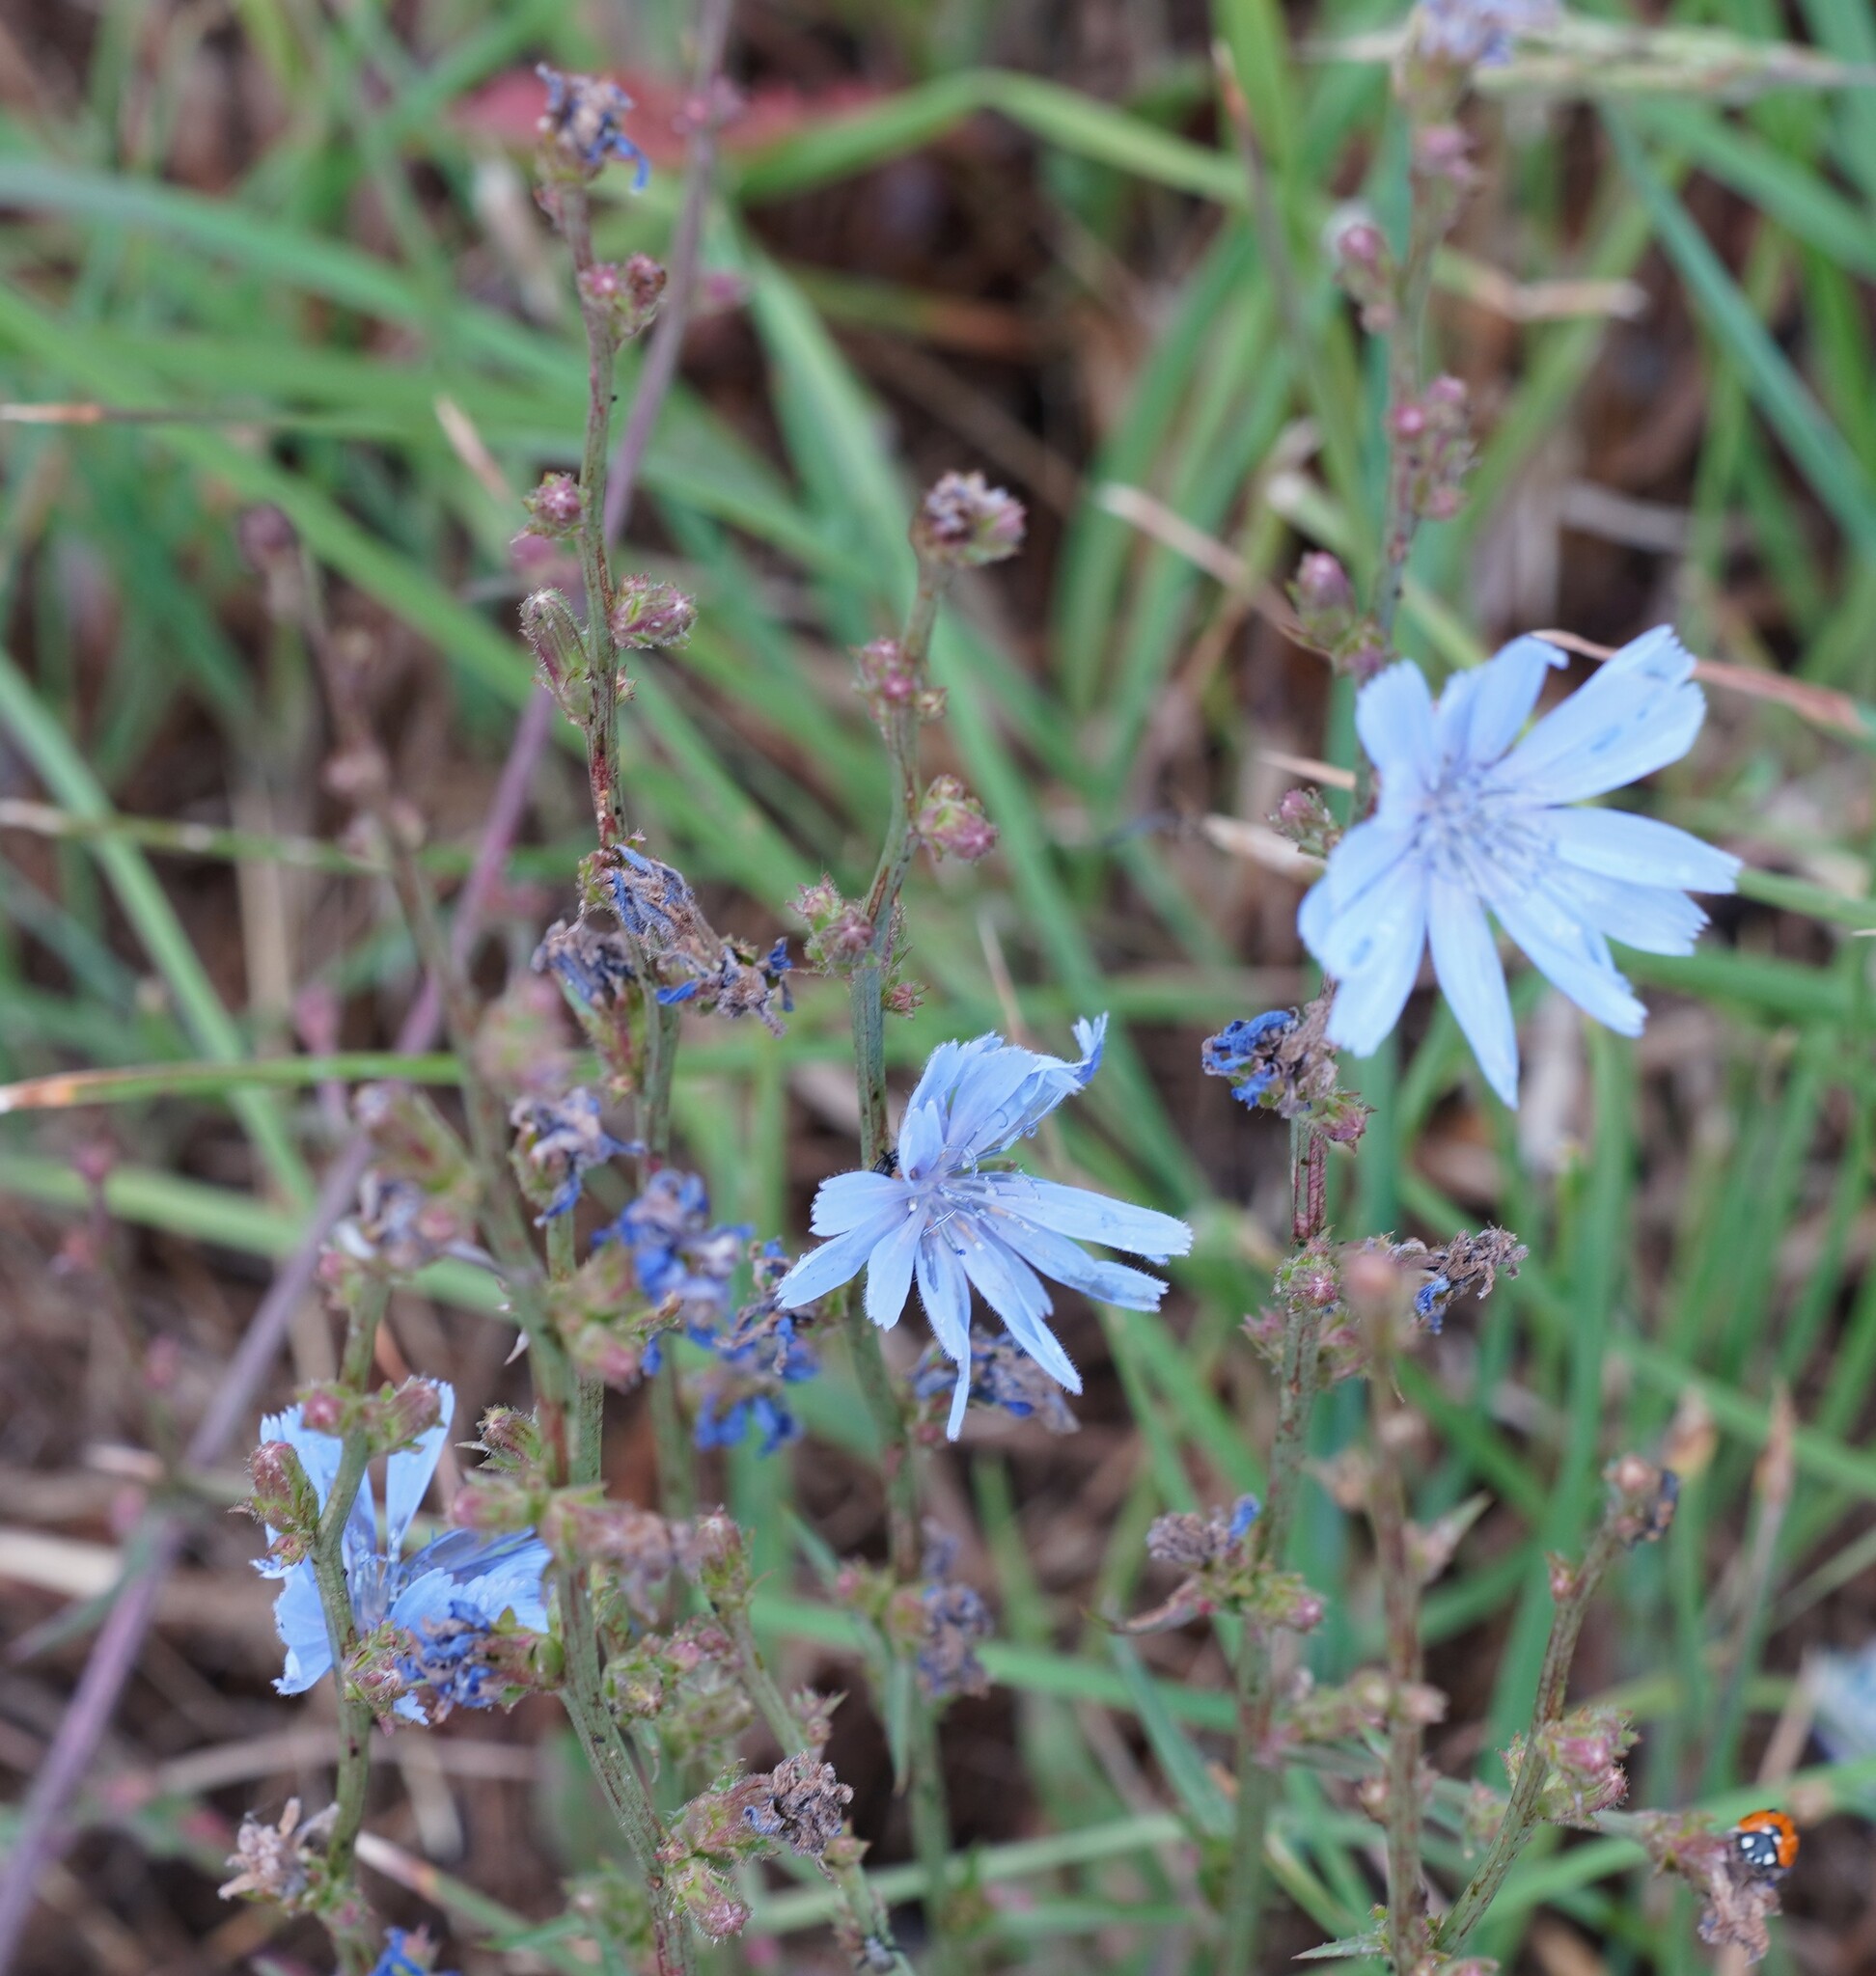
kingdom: Plantae
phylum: Tracheophyta
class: Magnoliopsida
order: Asterales
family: Asteraceae
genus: Cichorium
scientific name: Cichorium intybus
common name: Chicory
